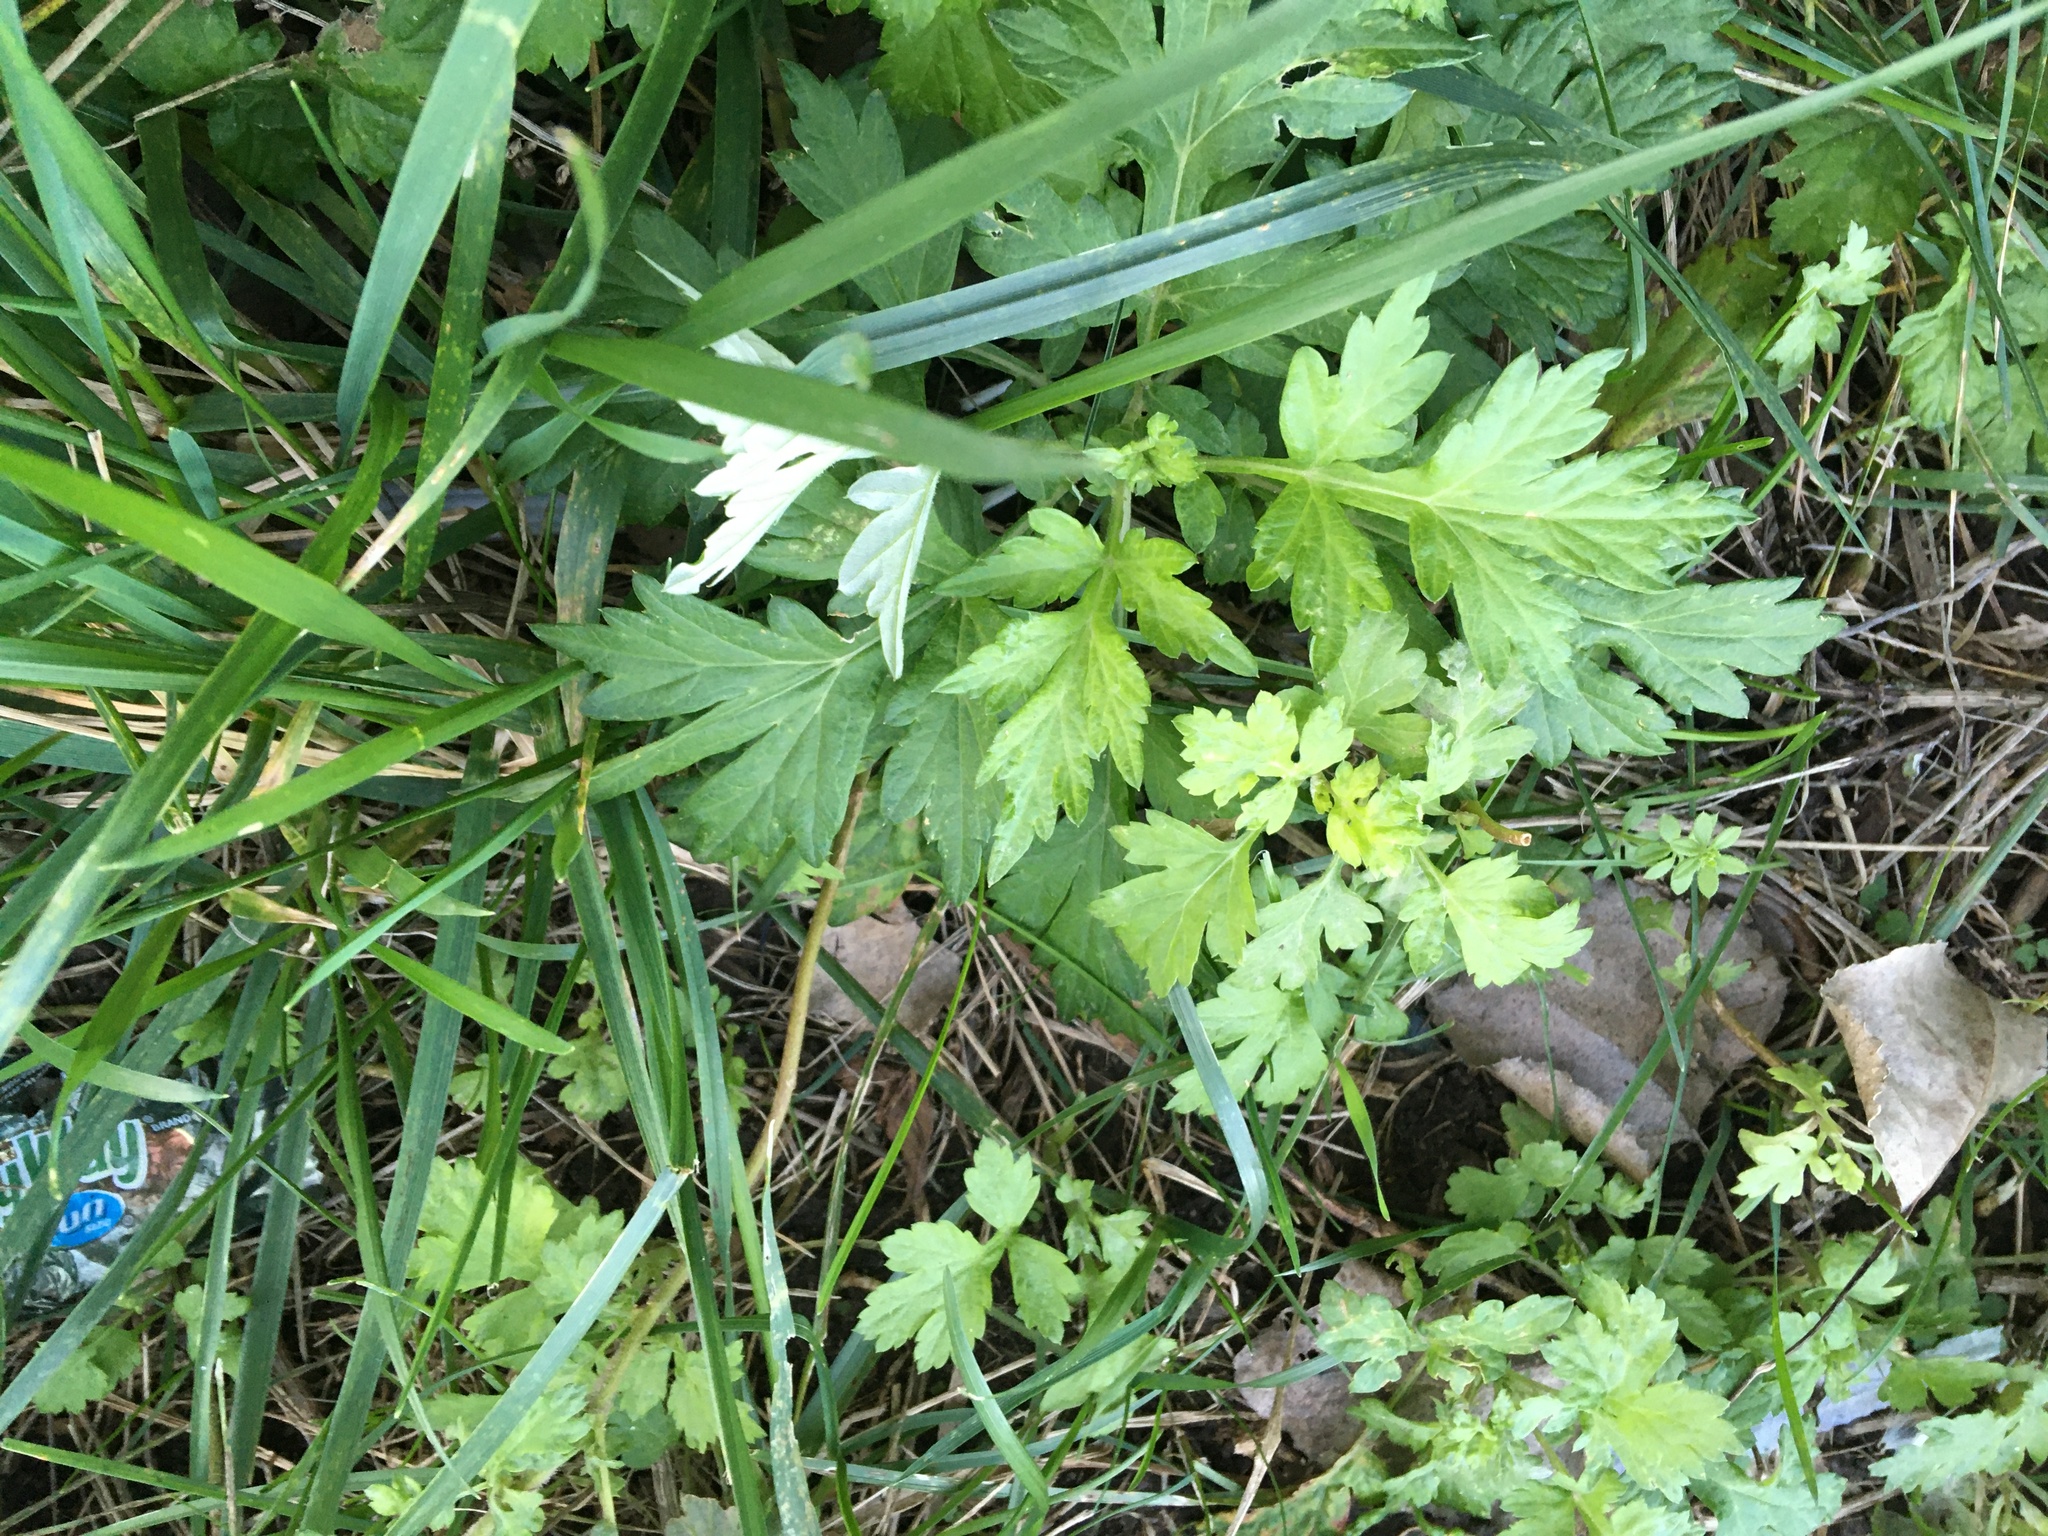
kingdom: Plantae
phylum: Tracheophyta
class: Magnoliopsida
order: Asterales
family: Asteraceae
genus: Artemisia
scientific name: Artemisia vulgaris
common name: Mugwort
